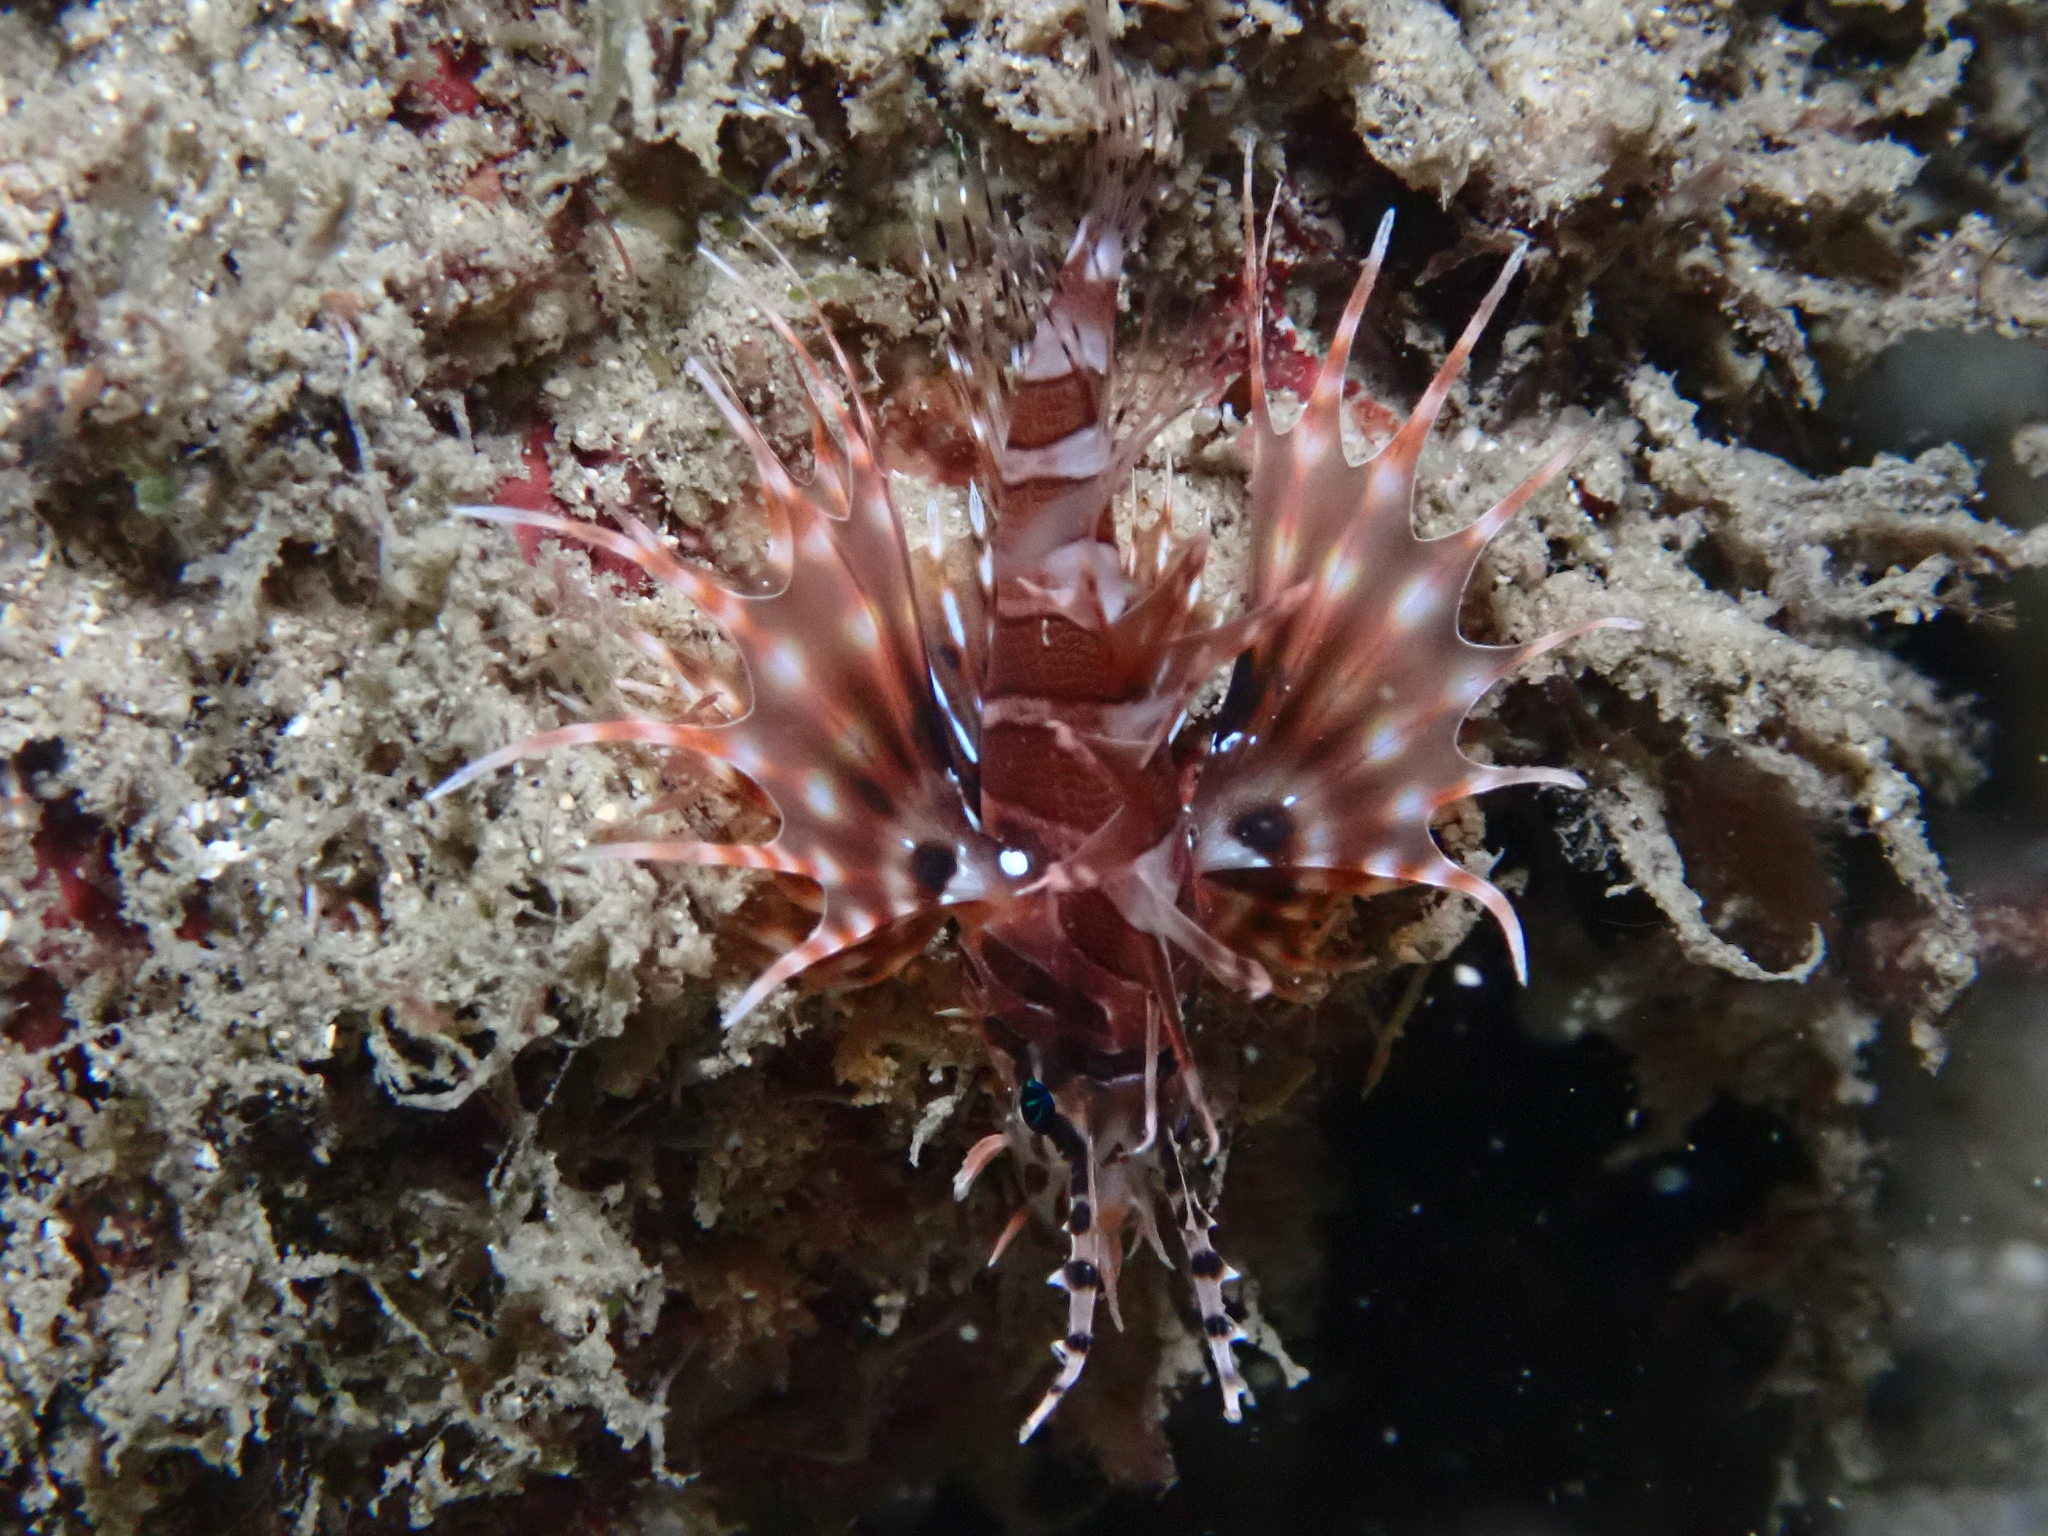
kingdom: Animalia
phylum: Chordata
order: Scorpaeniformes
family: Scorpaenidae
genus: Dendrochirus
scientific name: Dendrochirus zebra
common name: Zebra lionfish
